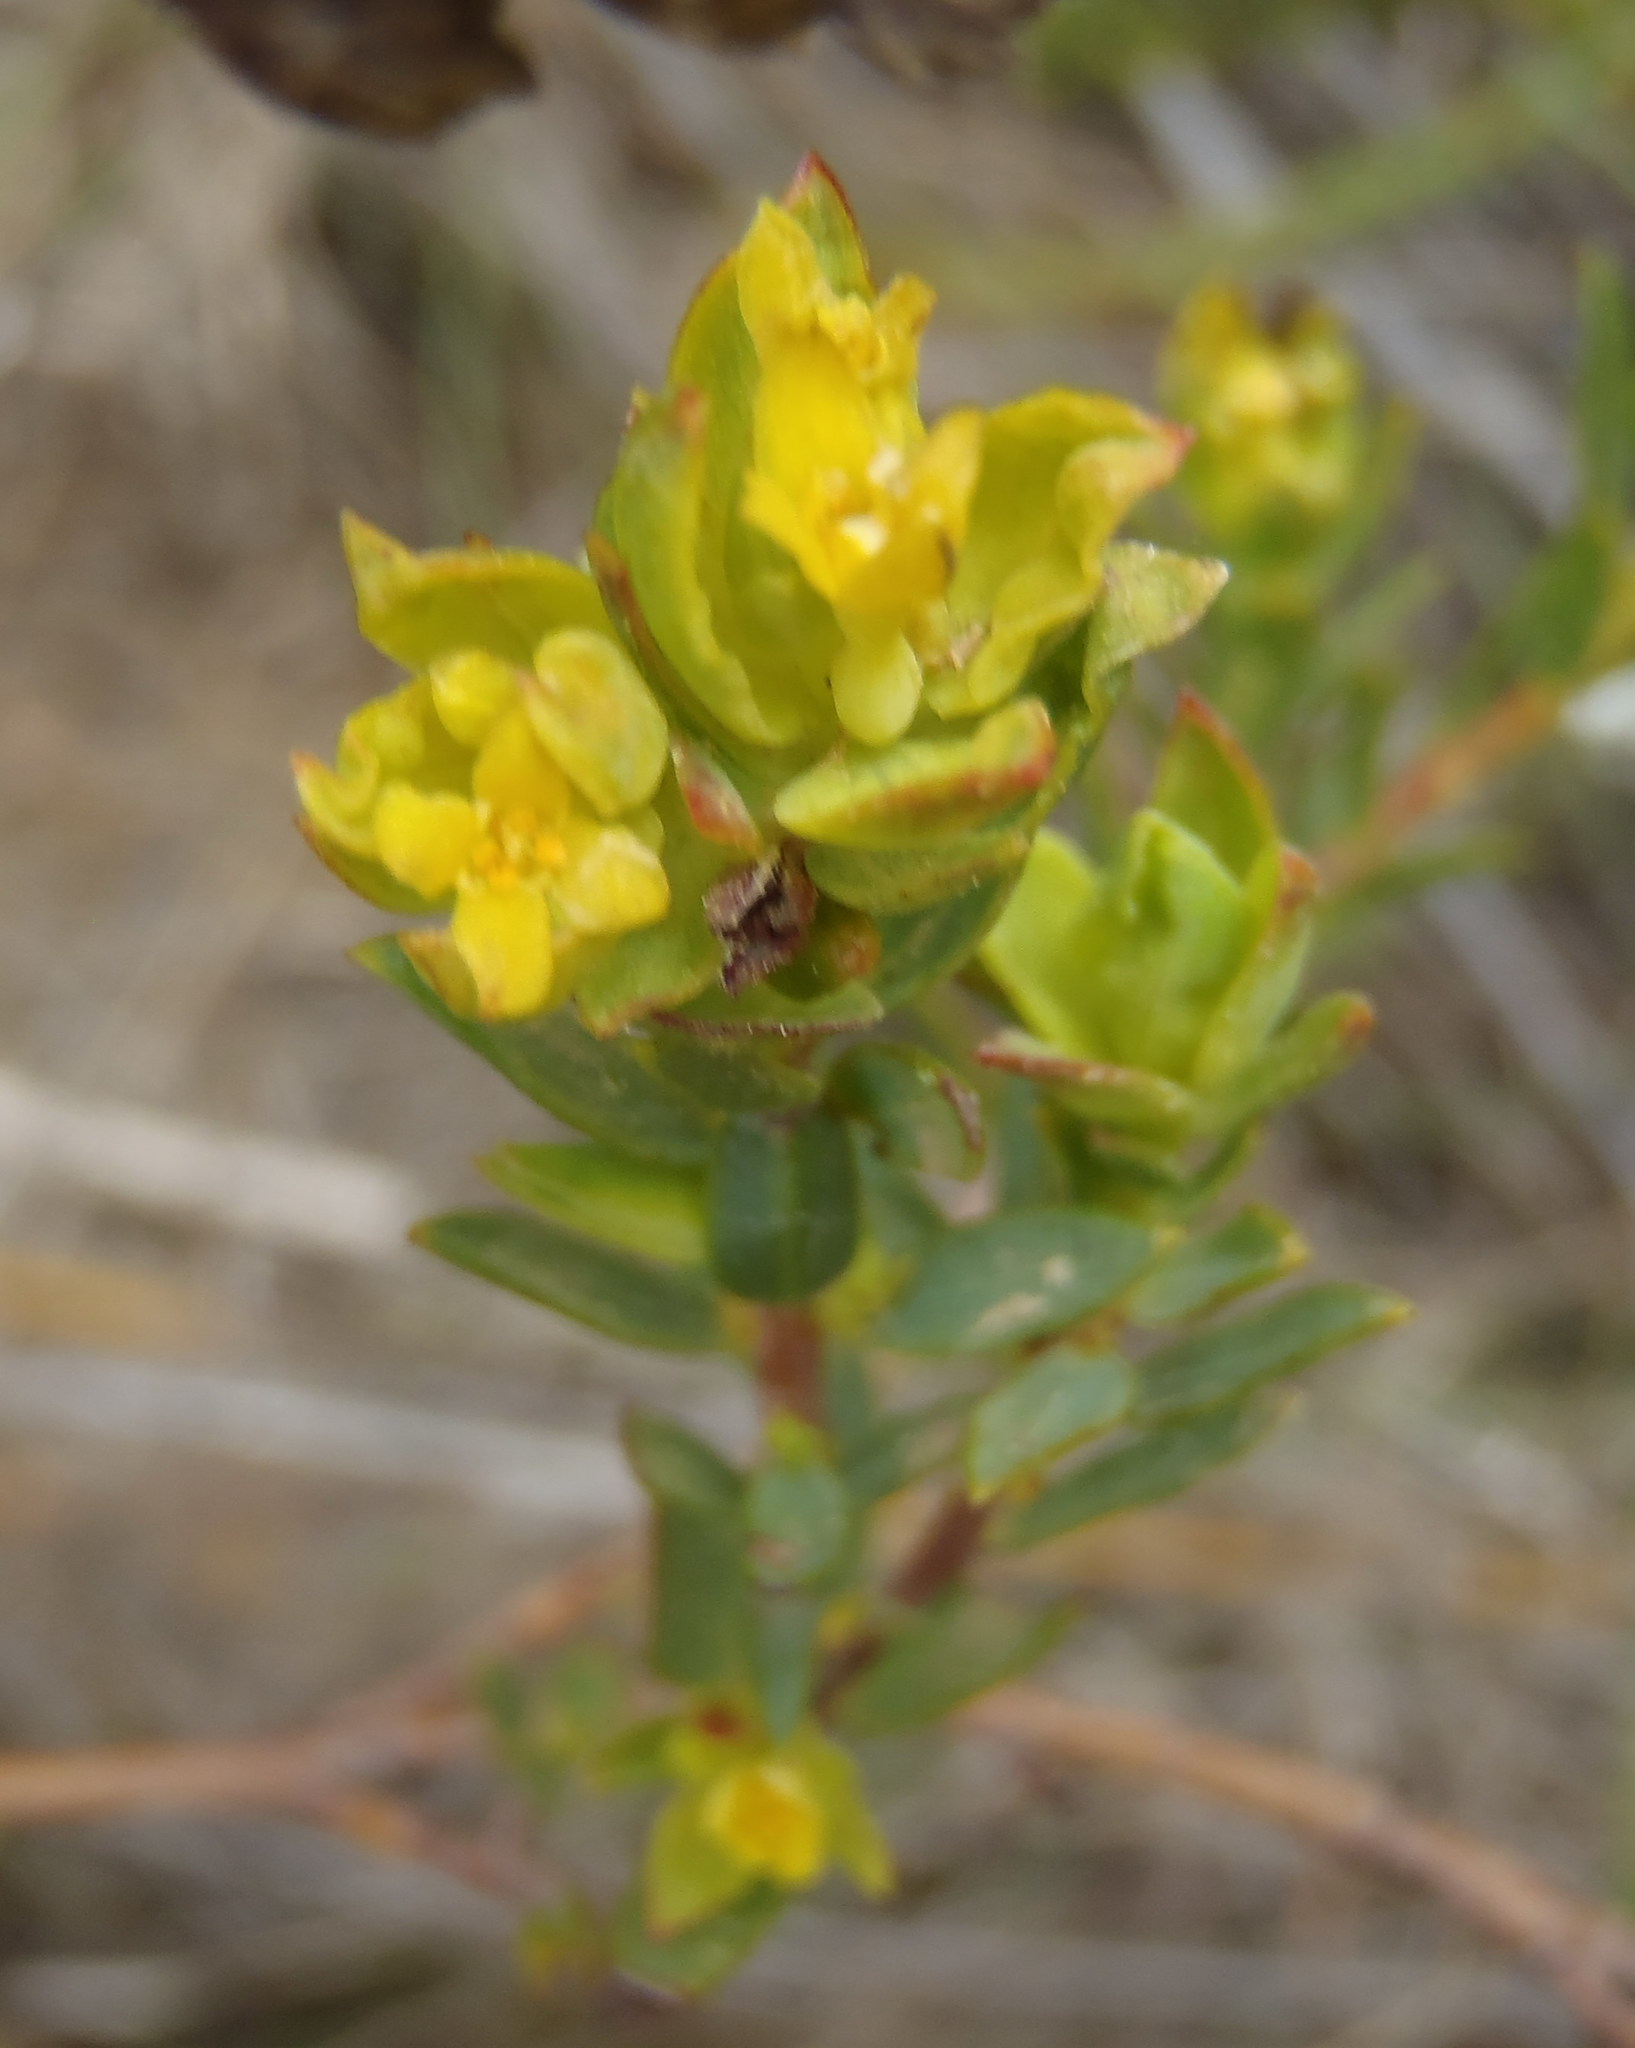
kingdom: Plantae
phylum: Tracheophyta
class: Magnoliopsida
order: Malvales
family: Thymelaeaceae
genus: Gnidia
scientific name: Gnidia juniperifolia
